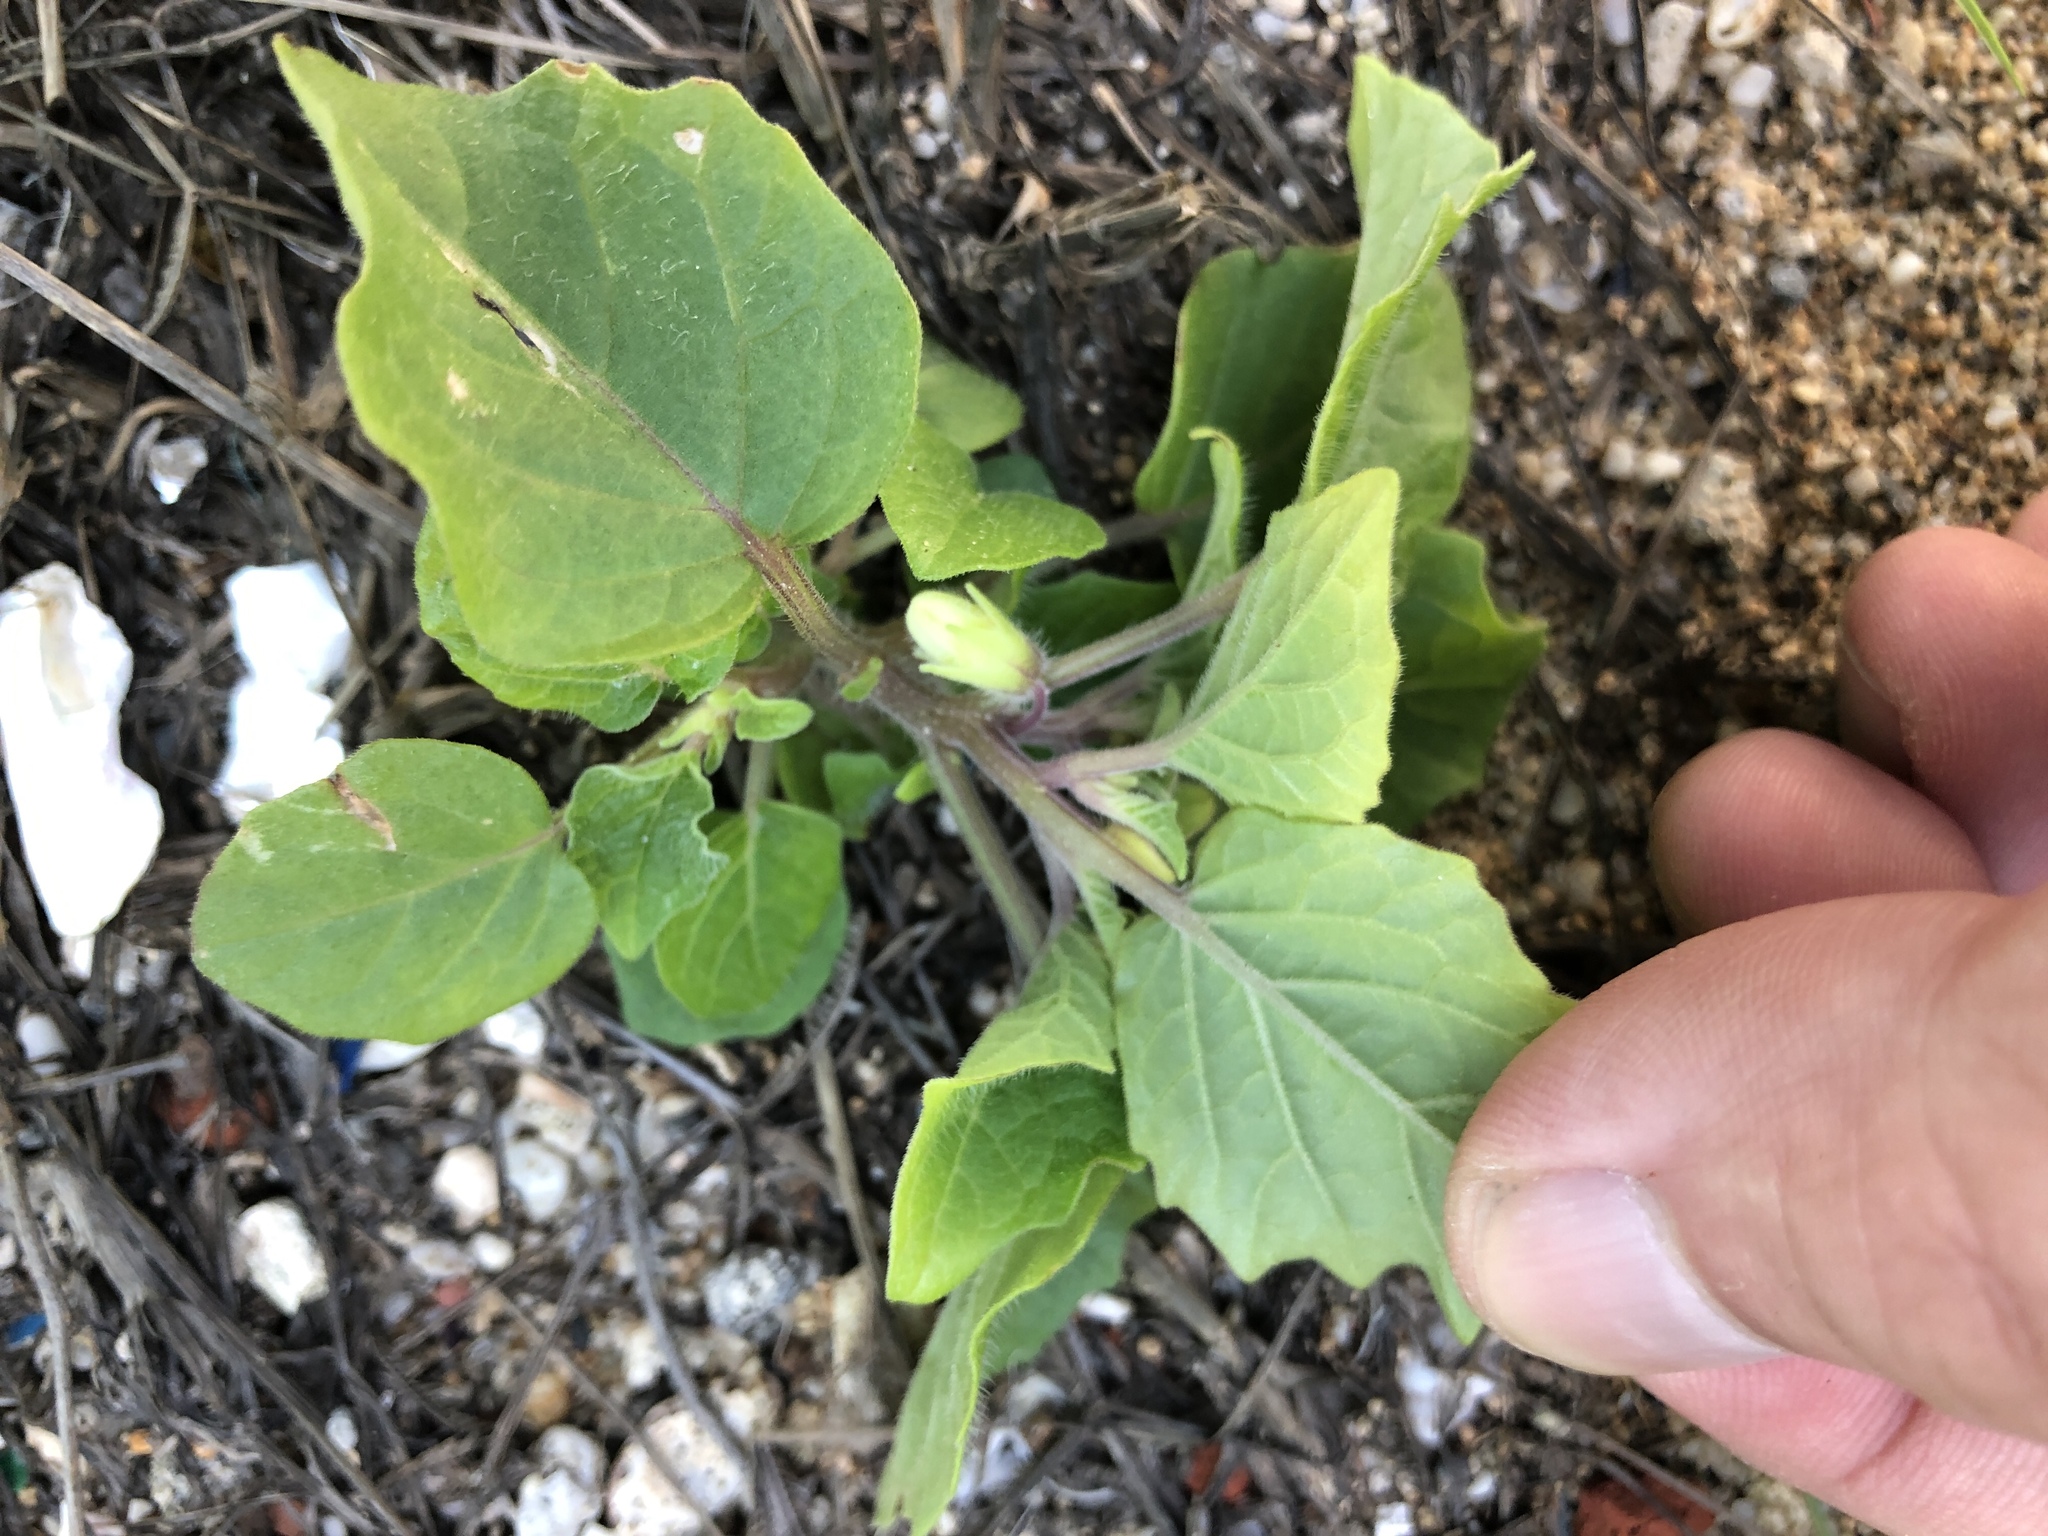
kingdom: Plantae
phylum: Tracheophyta
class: Magnoliopsida
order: Solanales
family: Solanaceae
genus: Physalis
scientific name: Physalis angulata
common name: Angular winter-cherry
